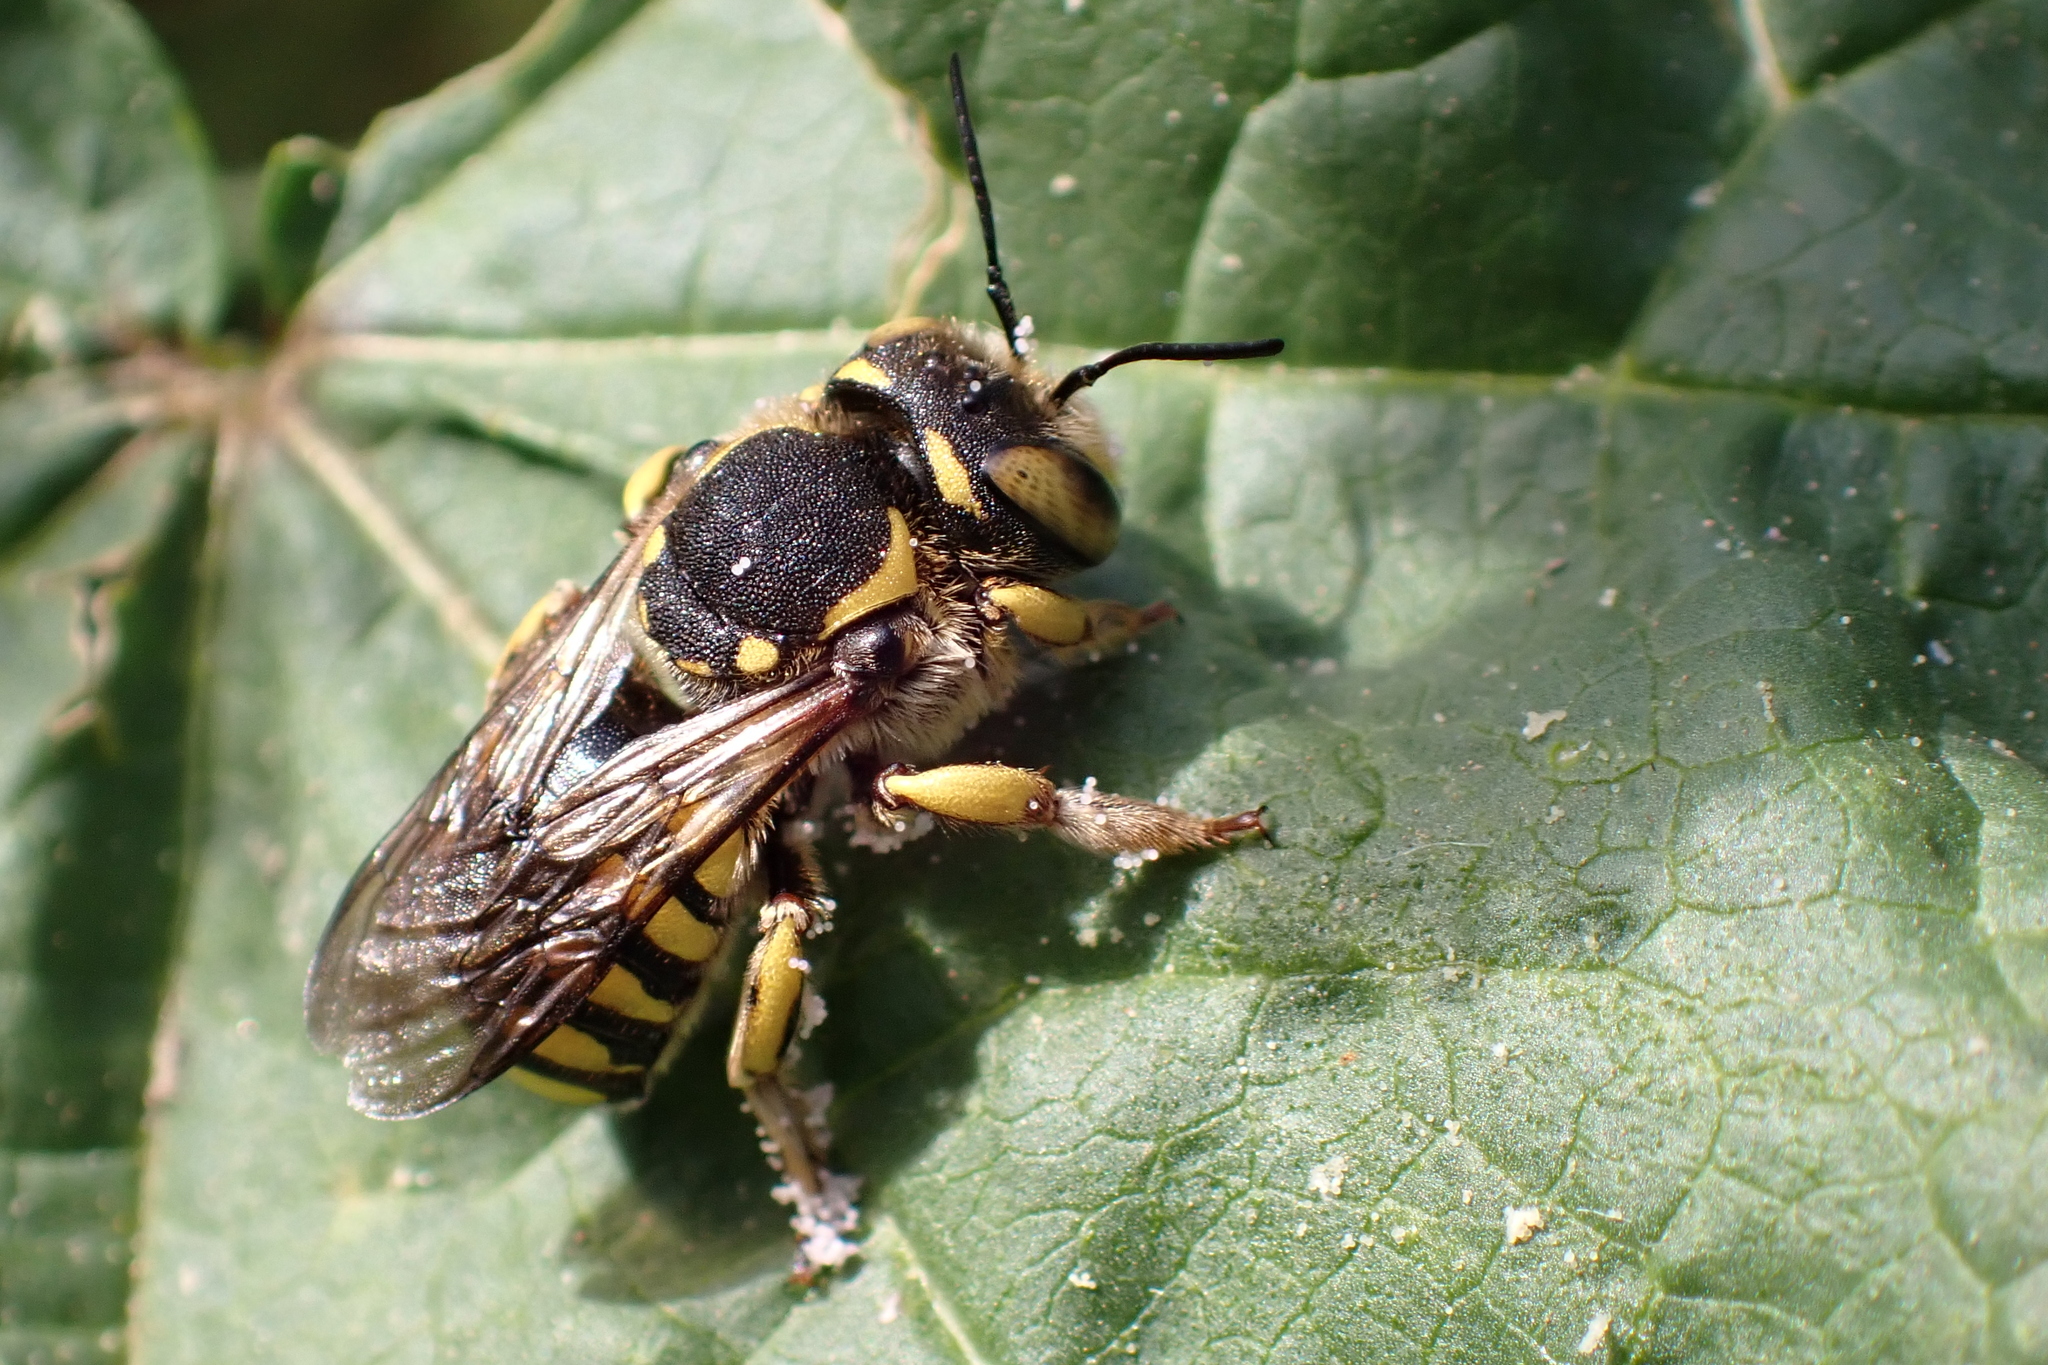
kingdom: Animalia
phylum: Arthropoda
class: Insecta
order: Hymenoptera
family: Megachilidae
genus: Anthidium
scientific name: Anthidium florentinum
